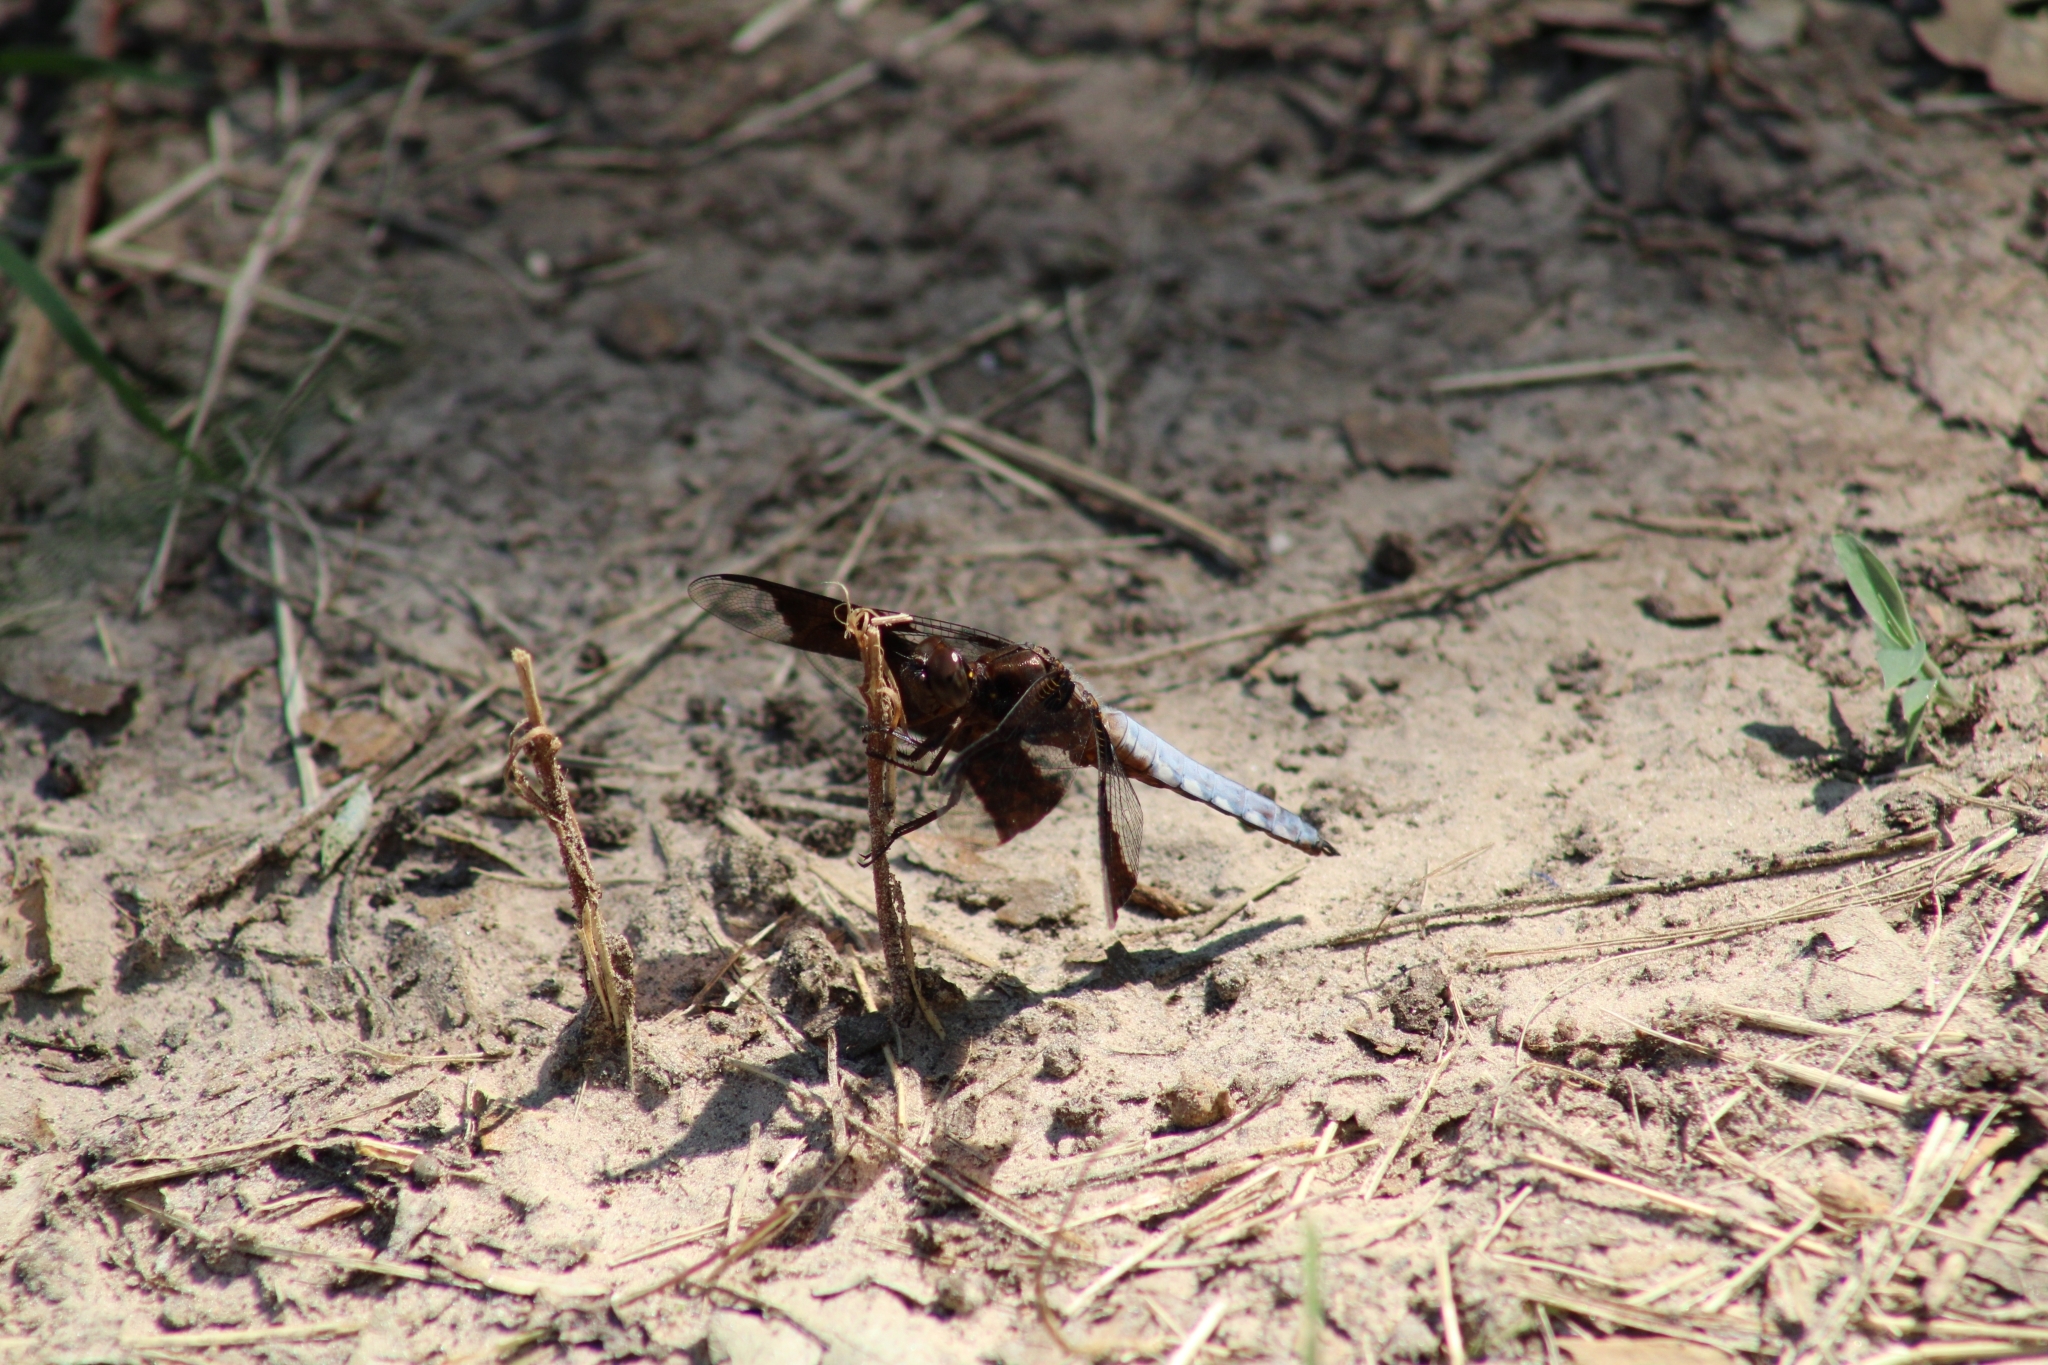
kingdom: Animalia
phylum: Arthropoda
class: Insecta
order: Odonata
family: Libellulidae
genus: Plathemis
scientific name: Plathemis lydia
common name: Common whitetail
